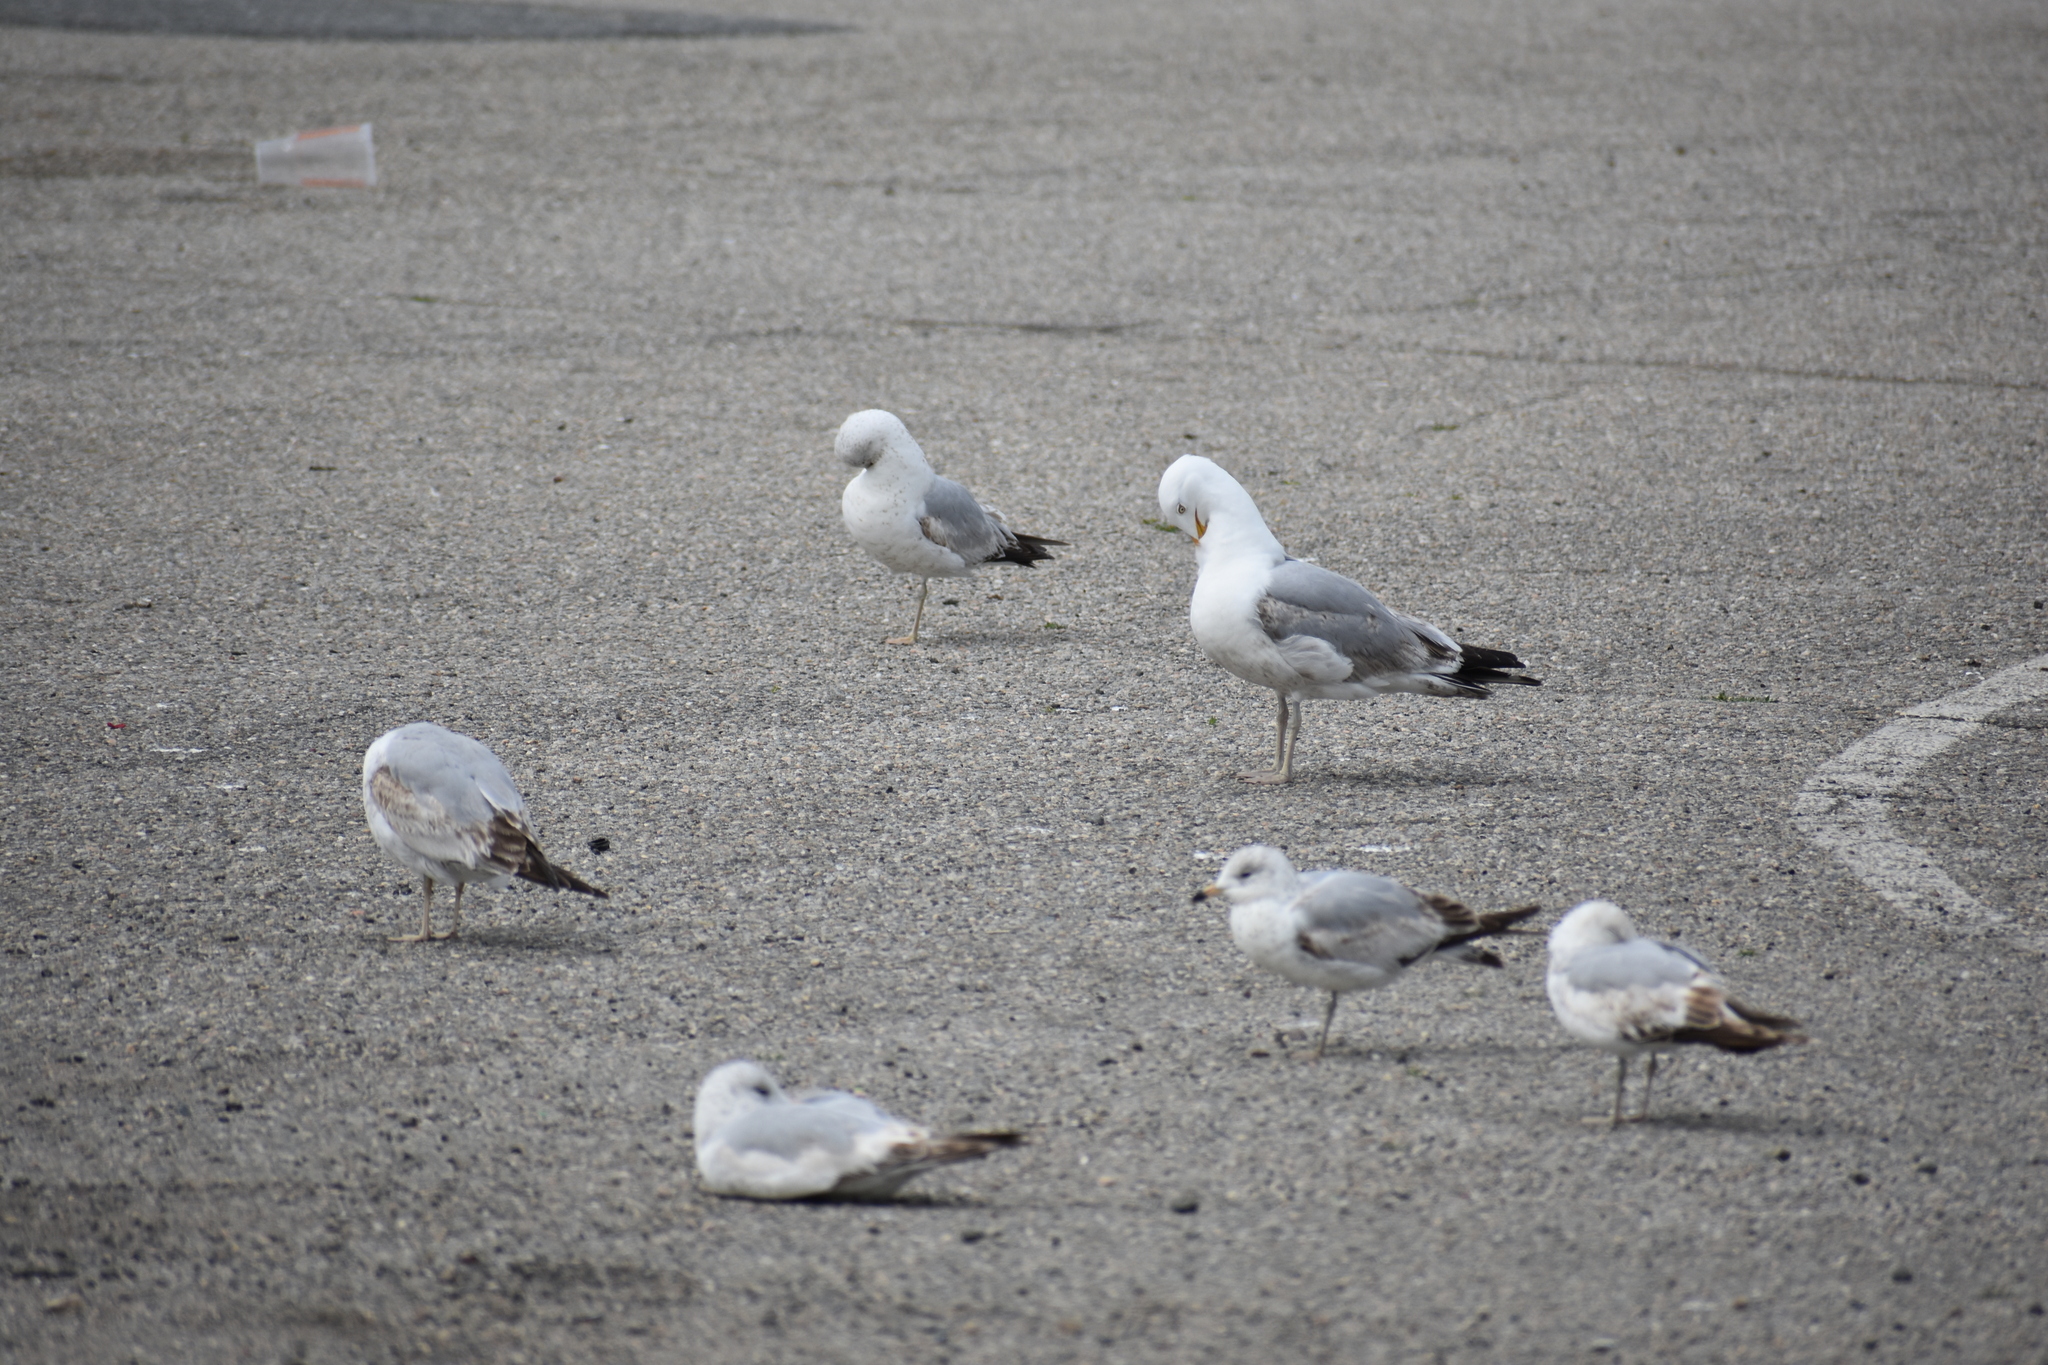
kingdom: Animalia
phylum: Chordata
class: Aves
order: Charadriiformes
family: Laridae
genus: Larus
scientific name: Larus delawarensis
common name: Ring-billed gull
